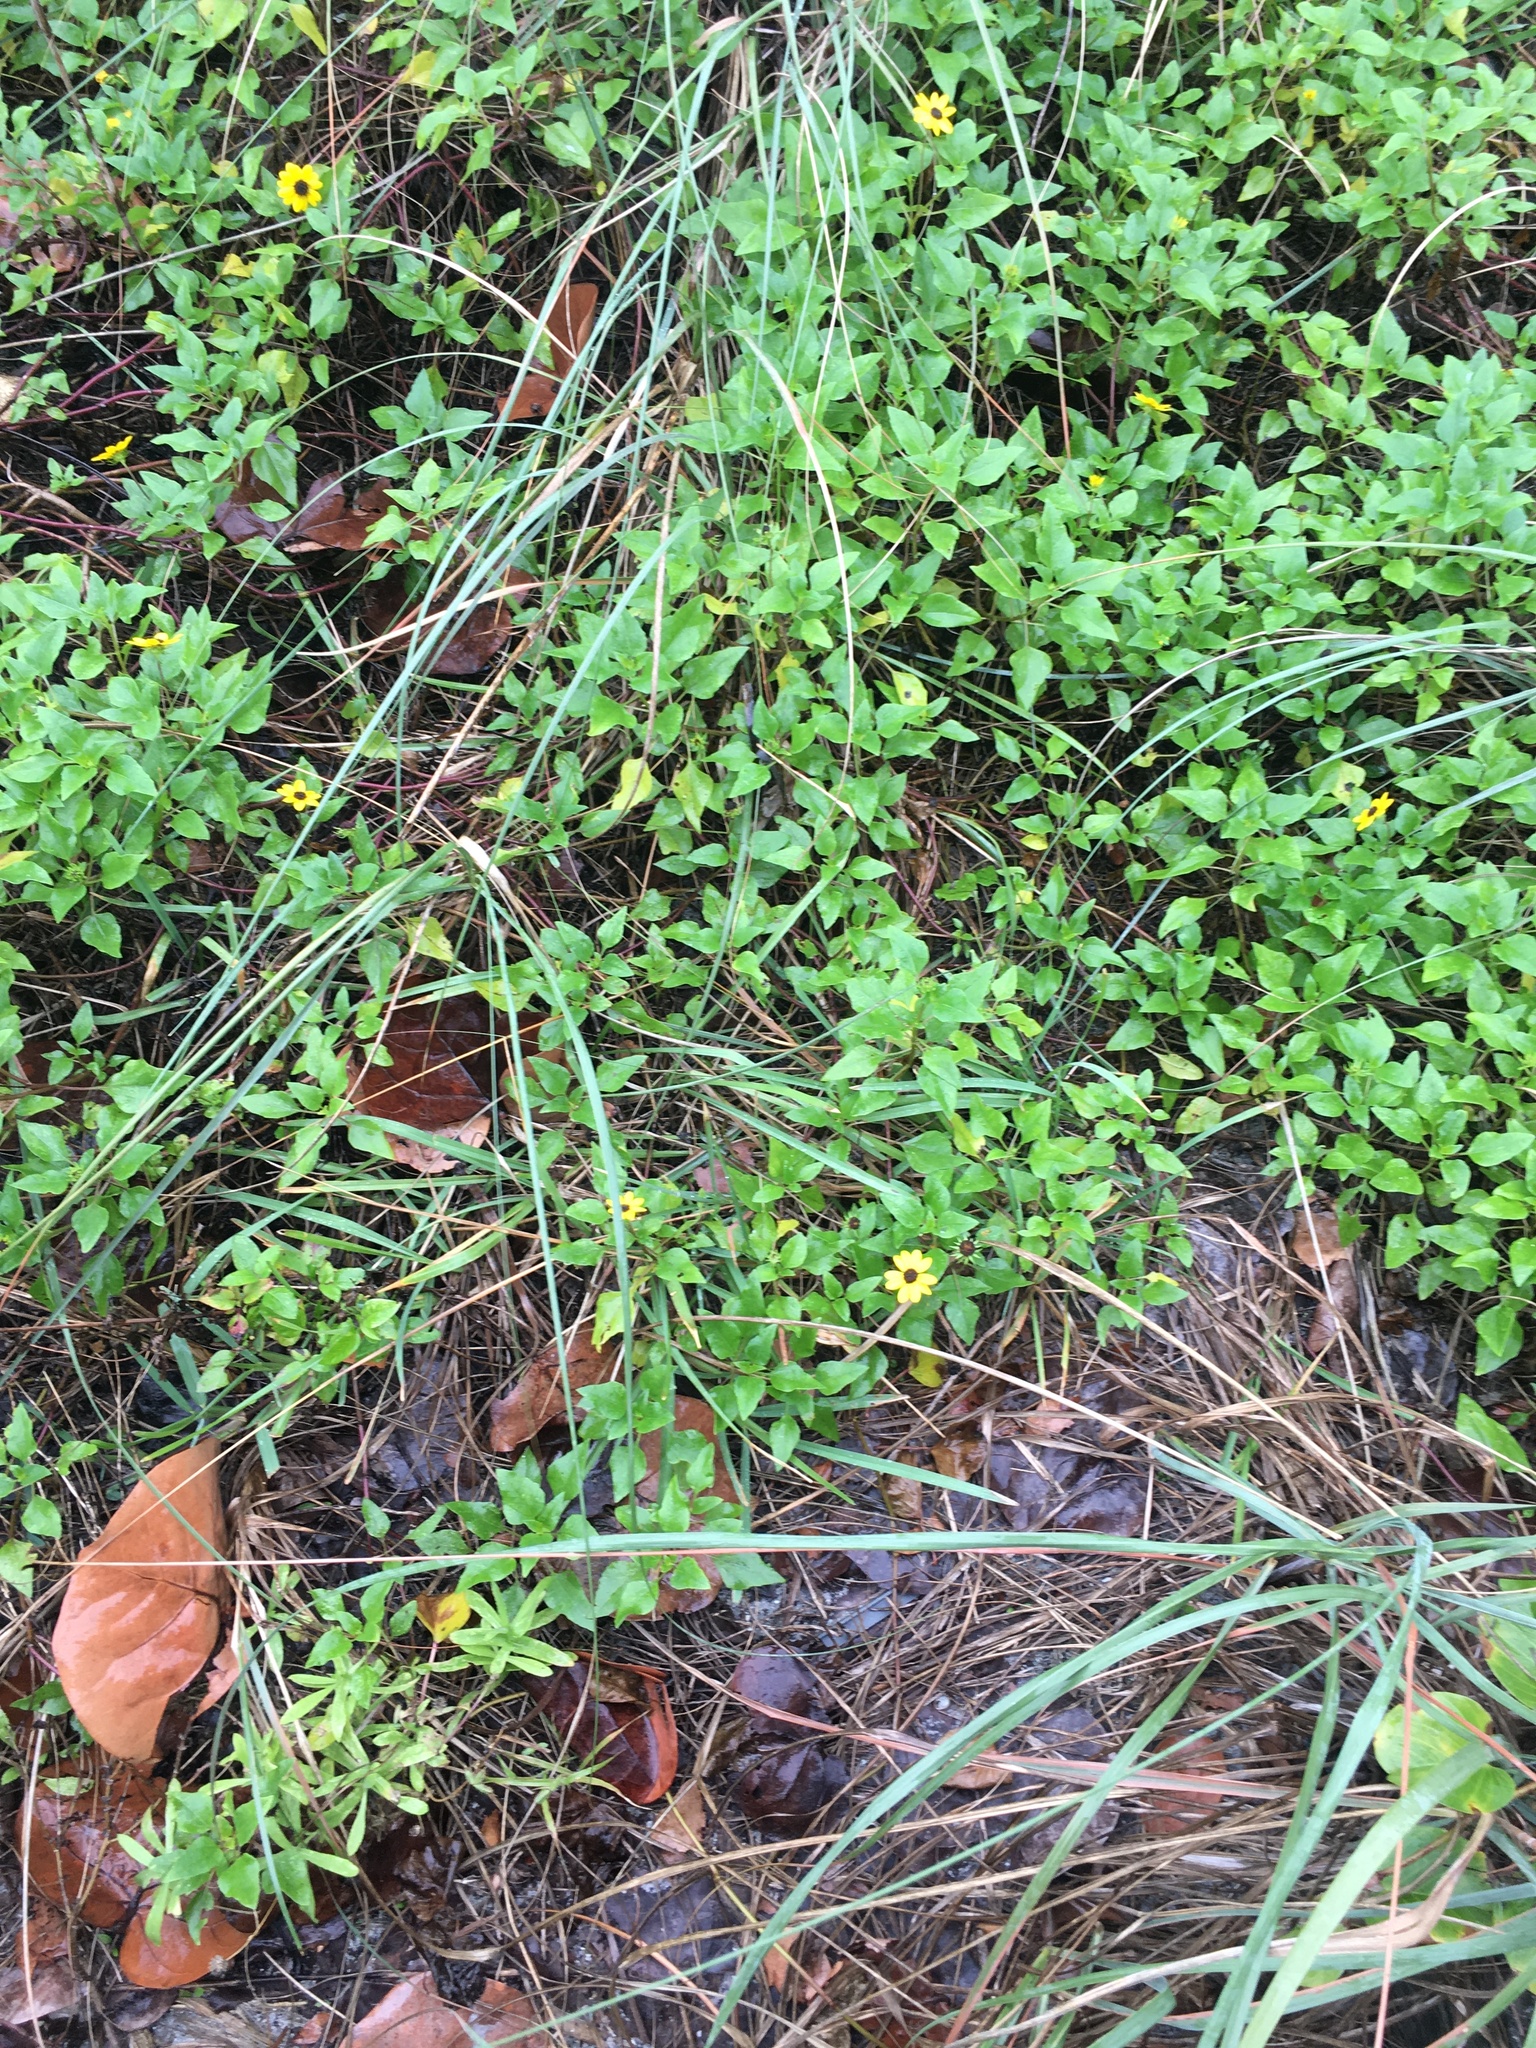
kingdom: Plantae
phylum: Tracheophyta
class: Magnoliopsida
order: Asterales
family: Asteraceae
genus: Helianthus
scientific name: Helianthus debilis
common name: Weak sunflower
